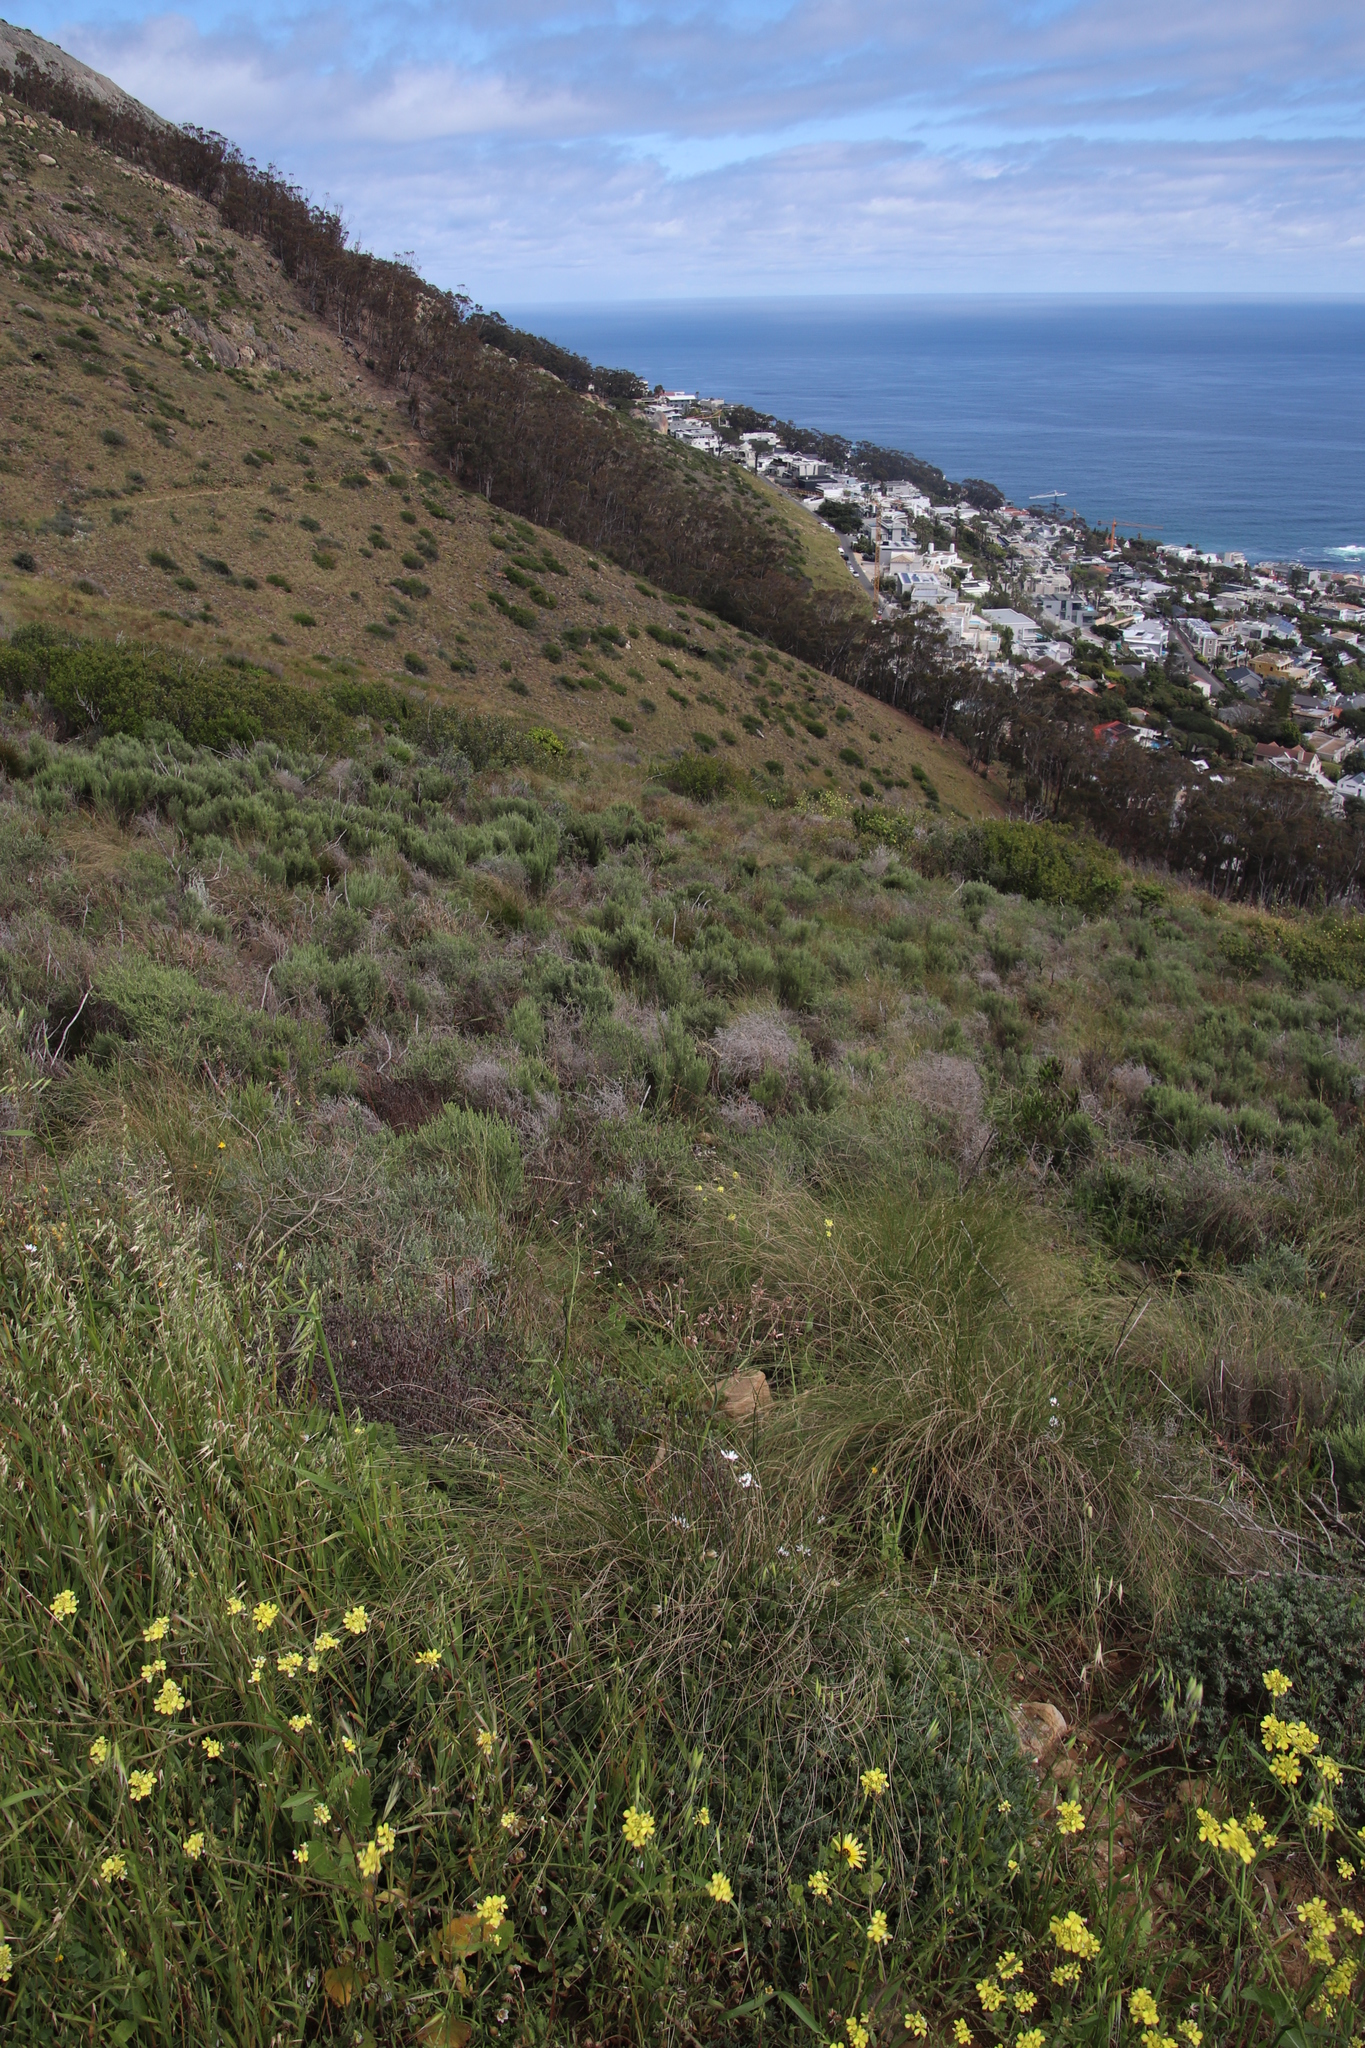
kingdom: Plantae
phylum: Tracheophyta
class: Magnoliopsida
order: Asterales
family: Asteraceae
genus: Dicerothamnus
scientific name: Dicerothamnus rhinocerotis
